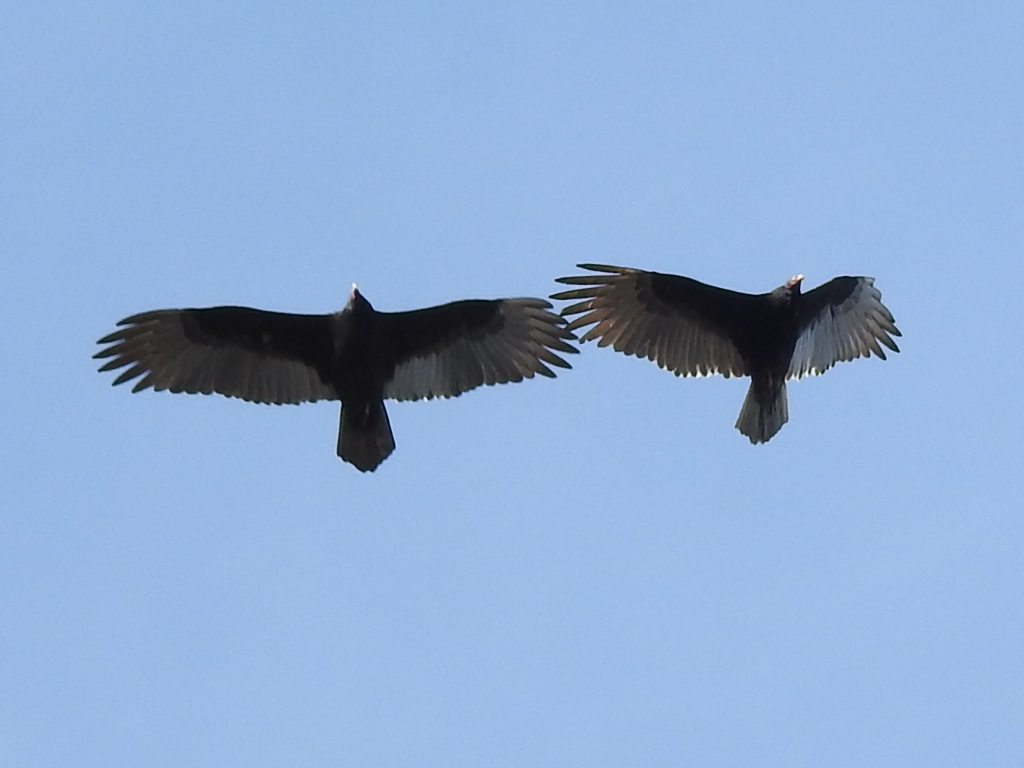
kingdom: Animalia
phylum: Chordata
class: Aves
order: Accipitriformes
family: Cathartidae
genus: Cathartes
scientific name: Cathartes aura
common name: Turkey vulture
